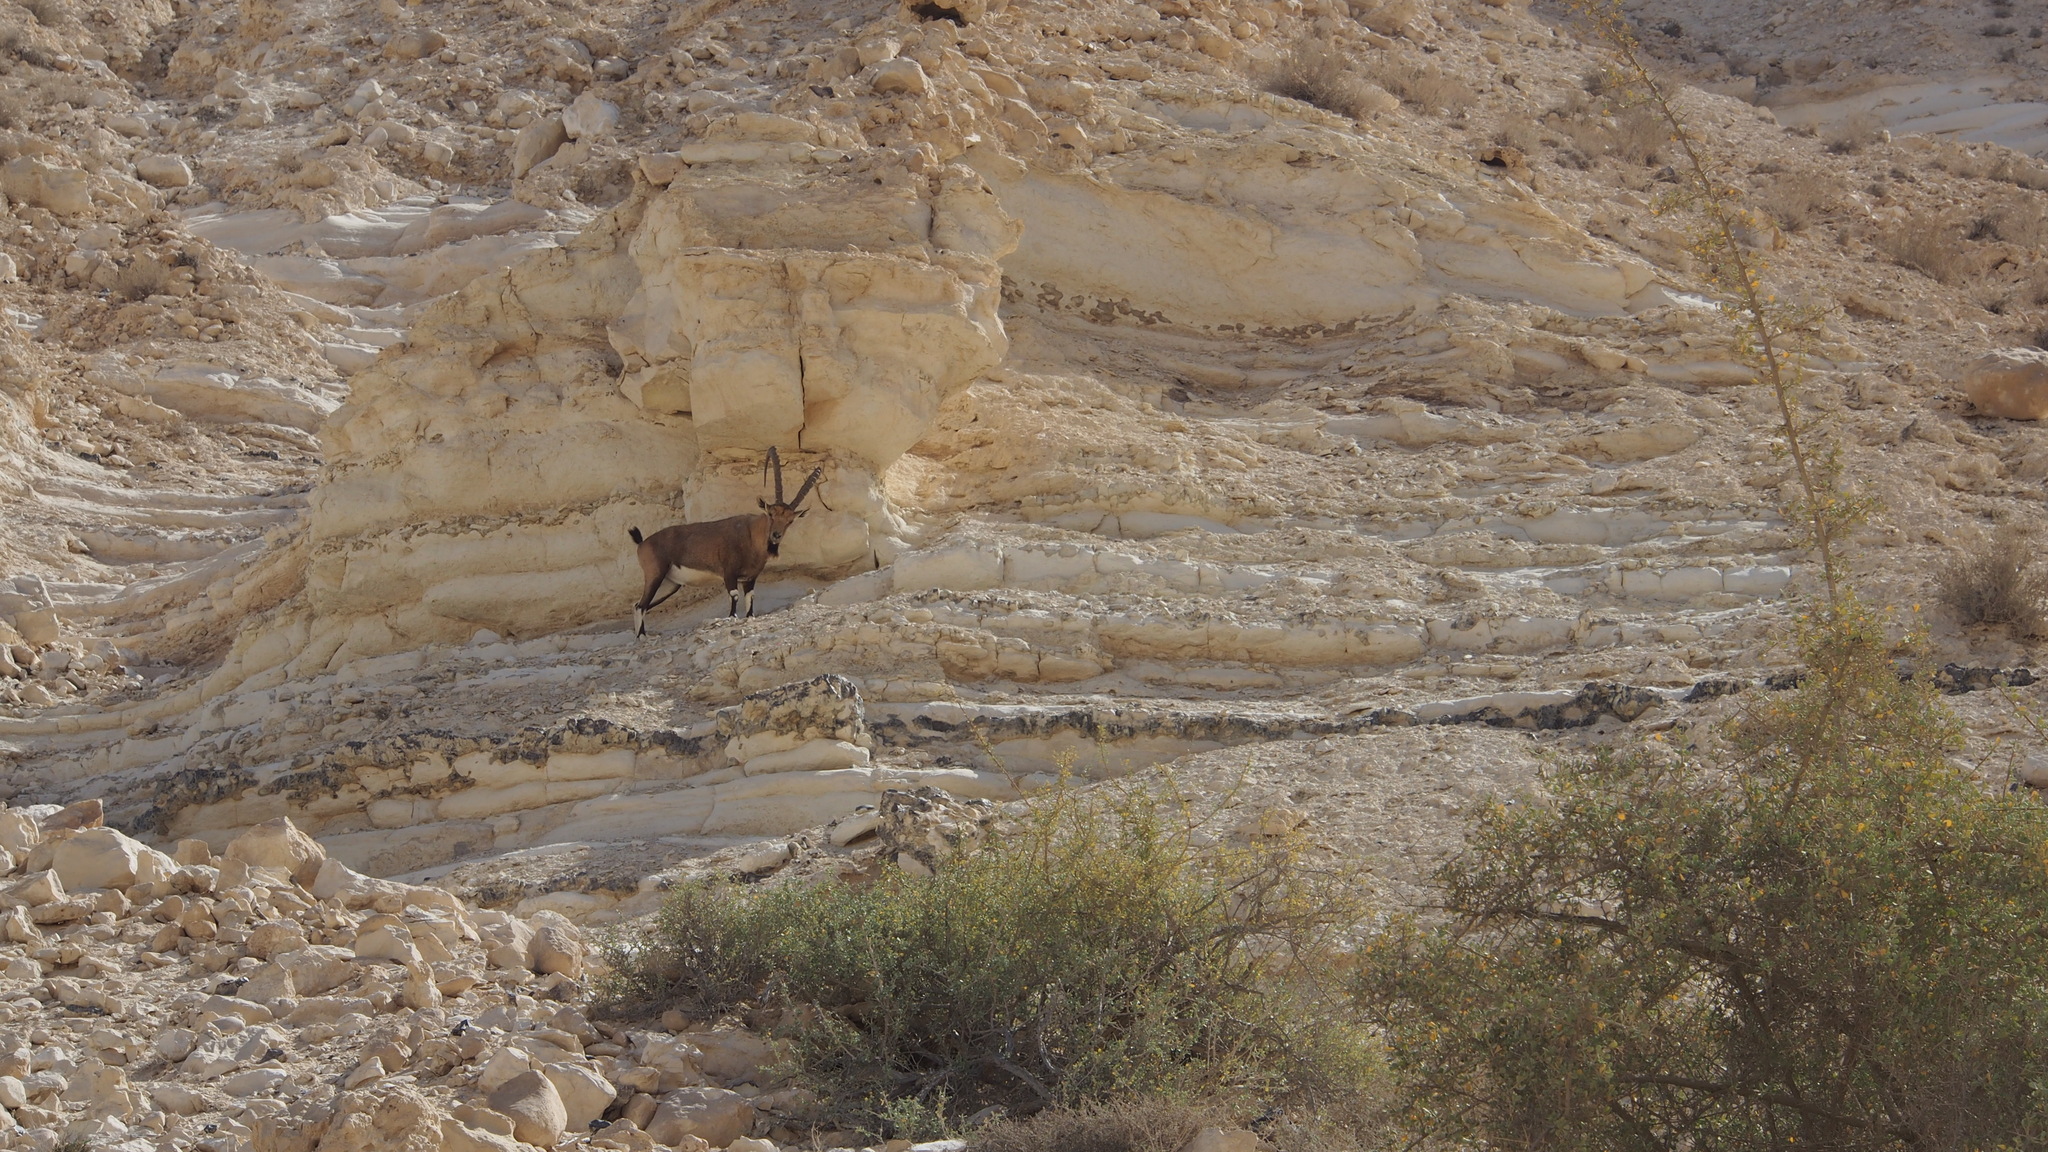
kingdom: Animalia
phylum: Chordata
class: Mammalia
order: Artiodactyla
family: Bovidae
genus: Capra
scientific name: Capra nubiana
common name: Nubian ibex
